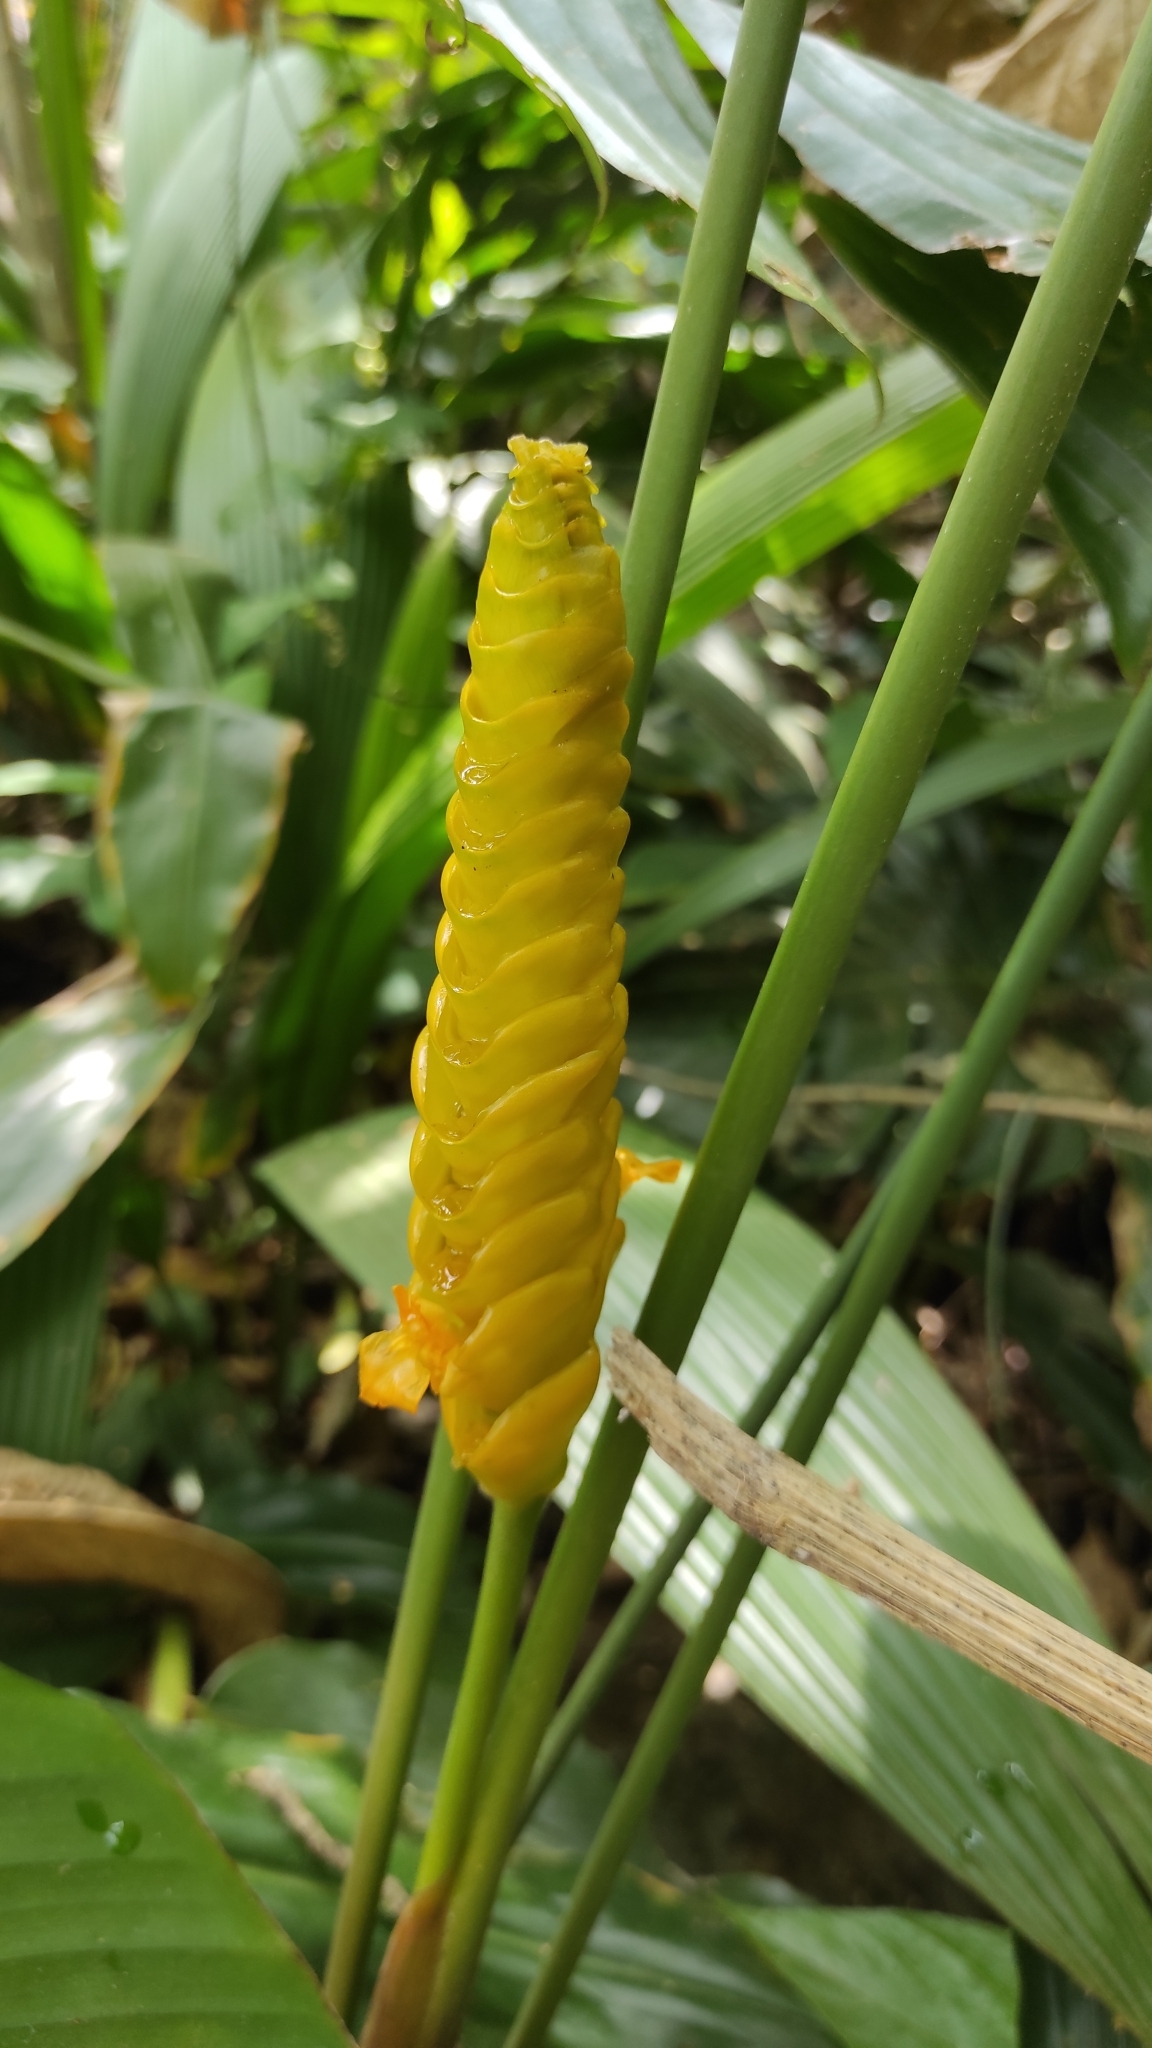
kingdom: Plantae
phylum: Tracheophyta
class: Liliopsida
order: Zingiberales
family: Marantaceae
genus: Calathea
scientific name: Calathea crotalifera
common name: Rattlesnake plant
